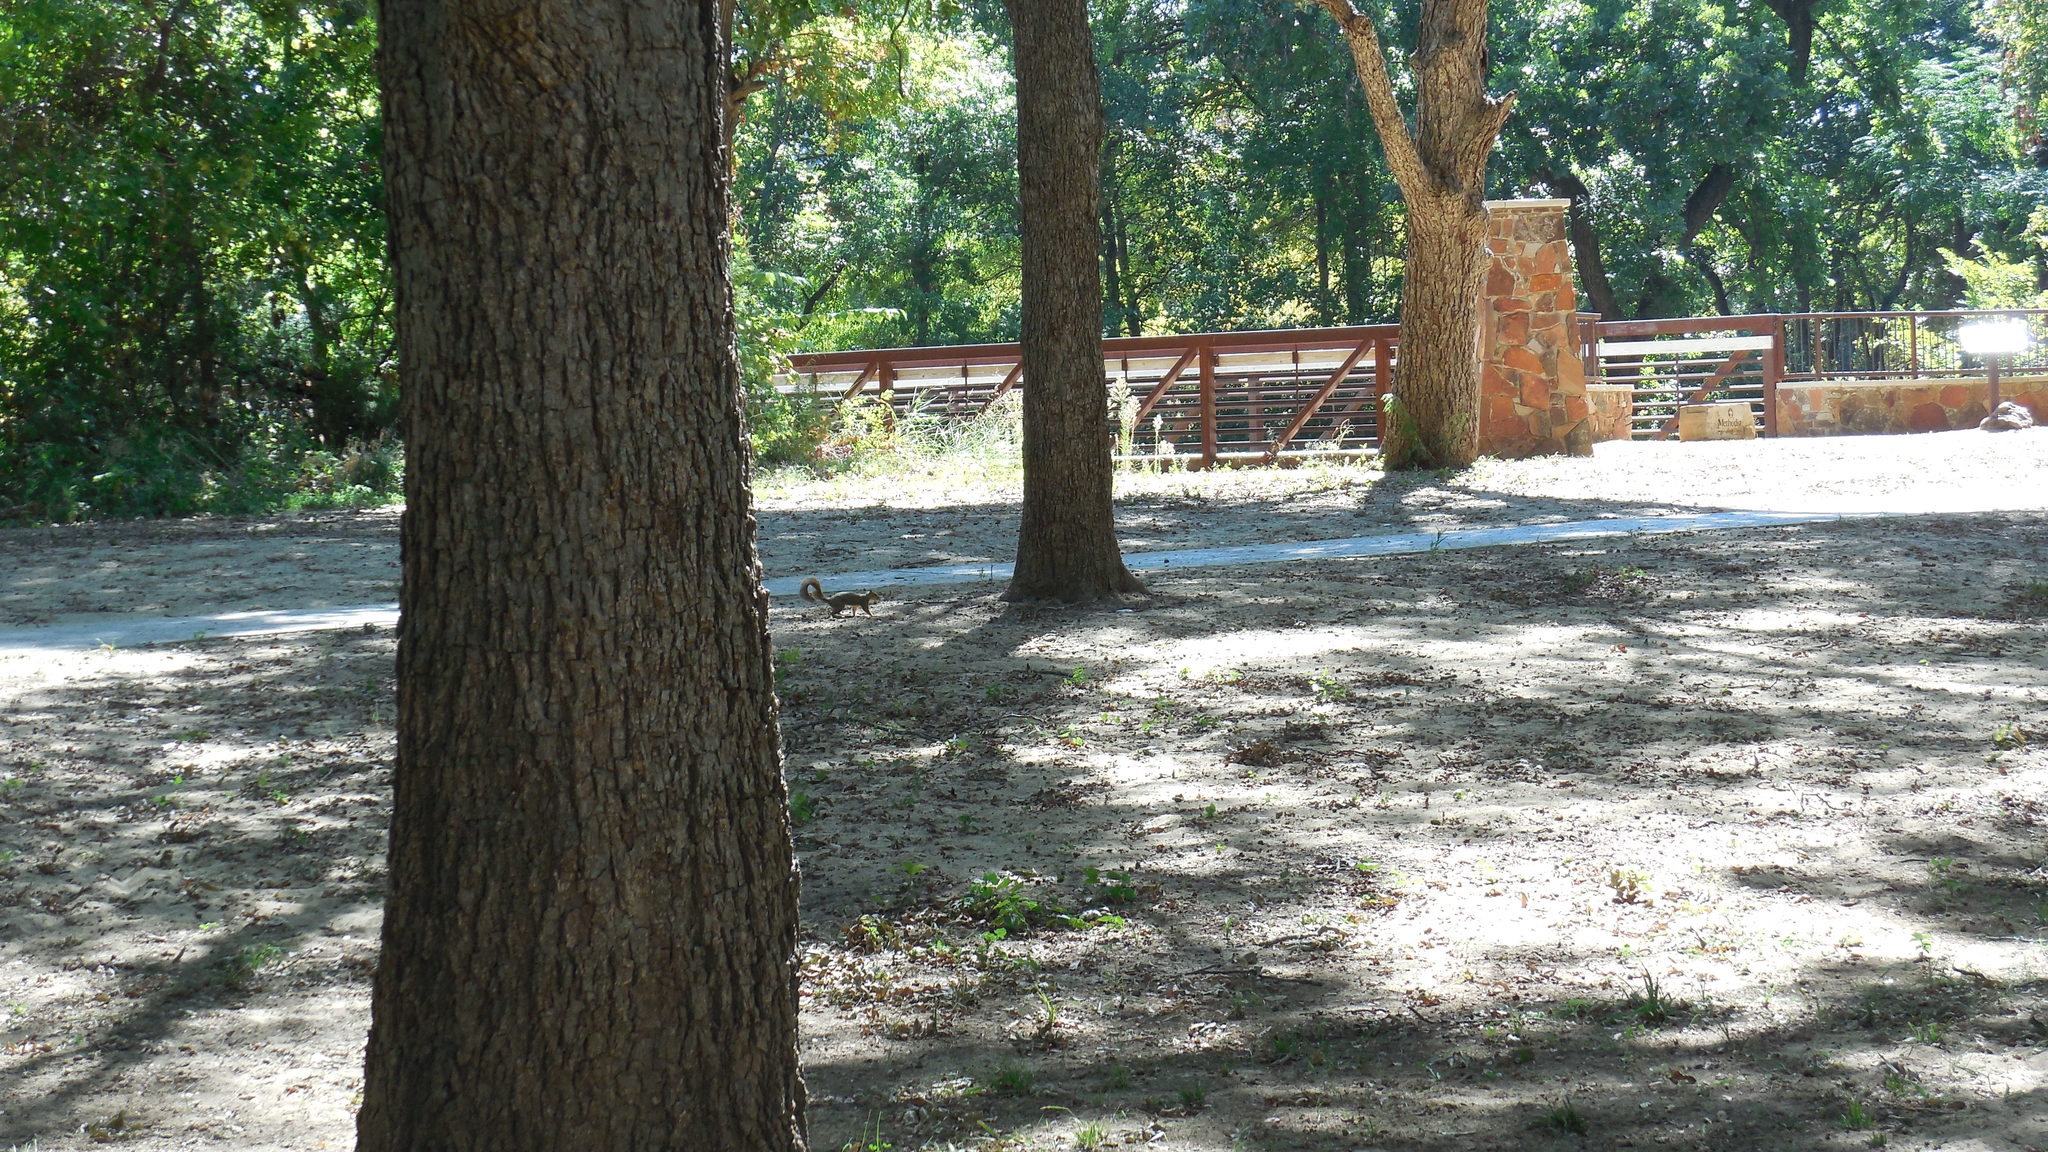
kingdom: Animalia
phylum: Chordata
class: Mammalia
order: Rodentia
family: Sciuridae
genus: Sciurus
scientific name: Sciurus niger
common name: Fox squirrel
